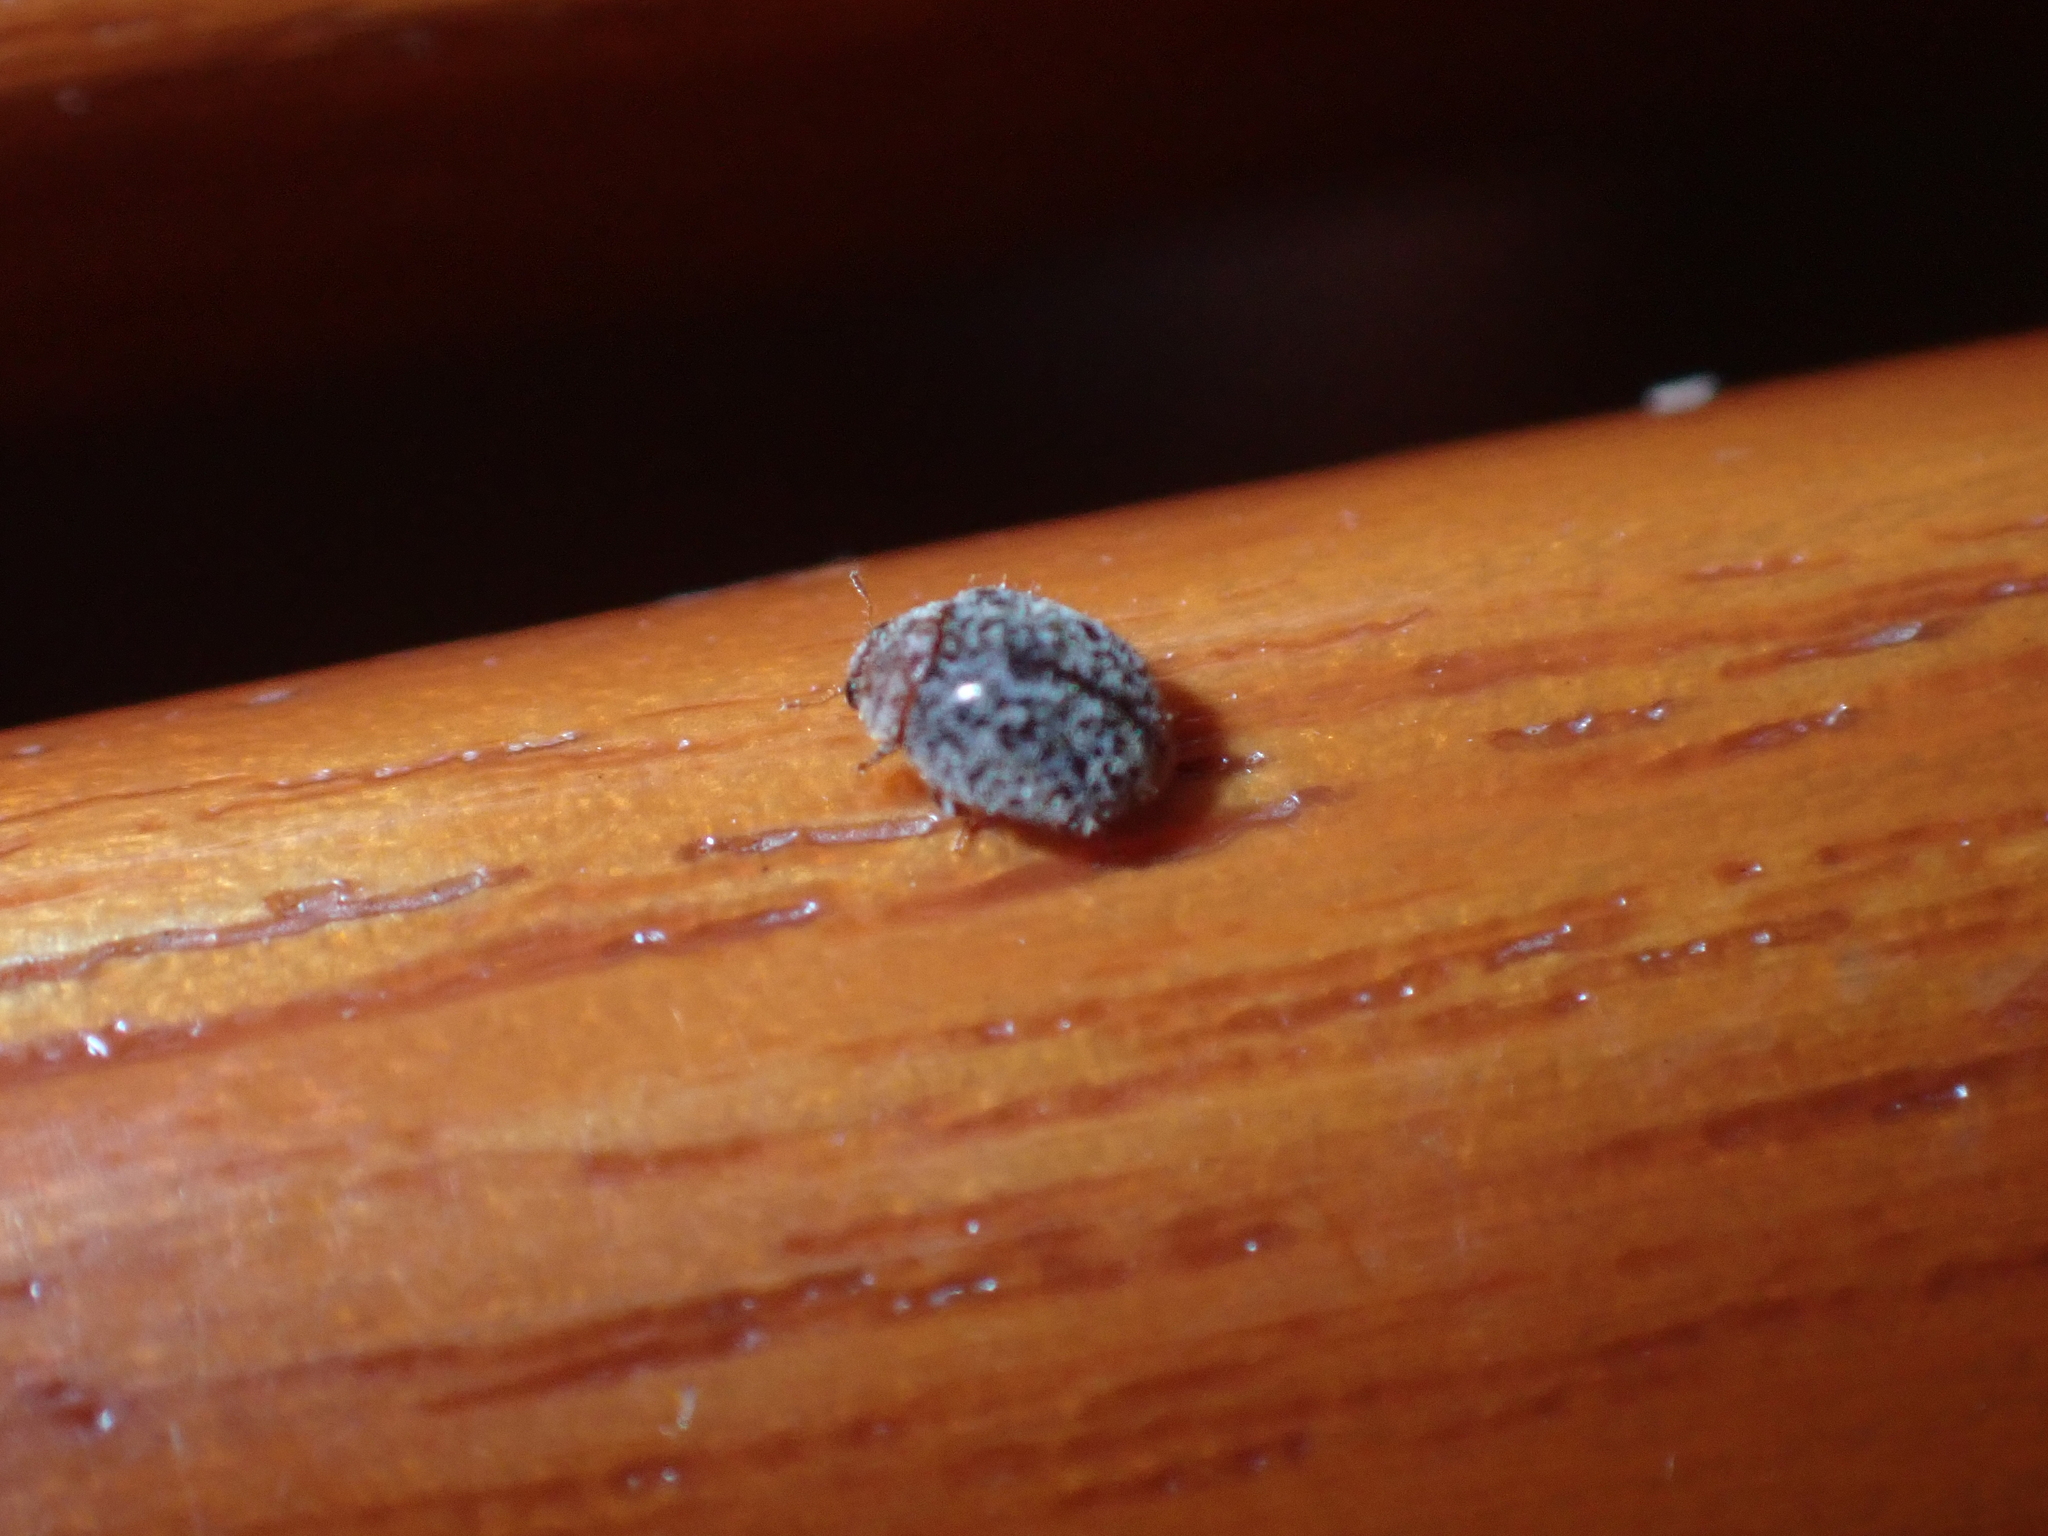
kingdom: Animalia
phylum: Arthropoda
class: Insecta
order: Coleoptera
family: Coccinellidae
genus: Rhyzobius
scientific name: Rhyzobius lophanthae
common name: Scale-eating ladybird beetle
